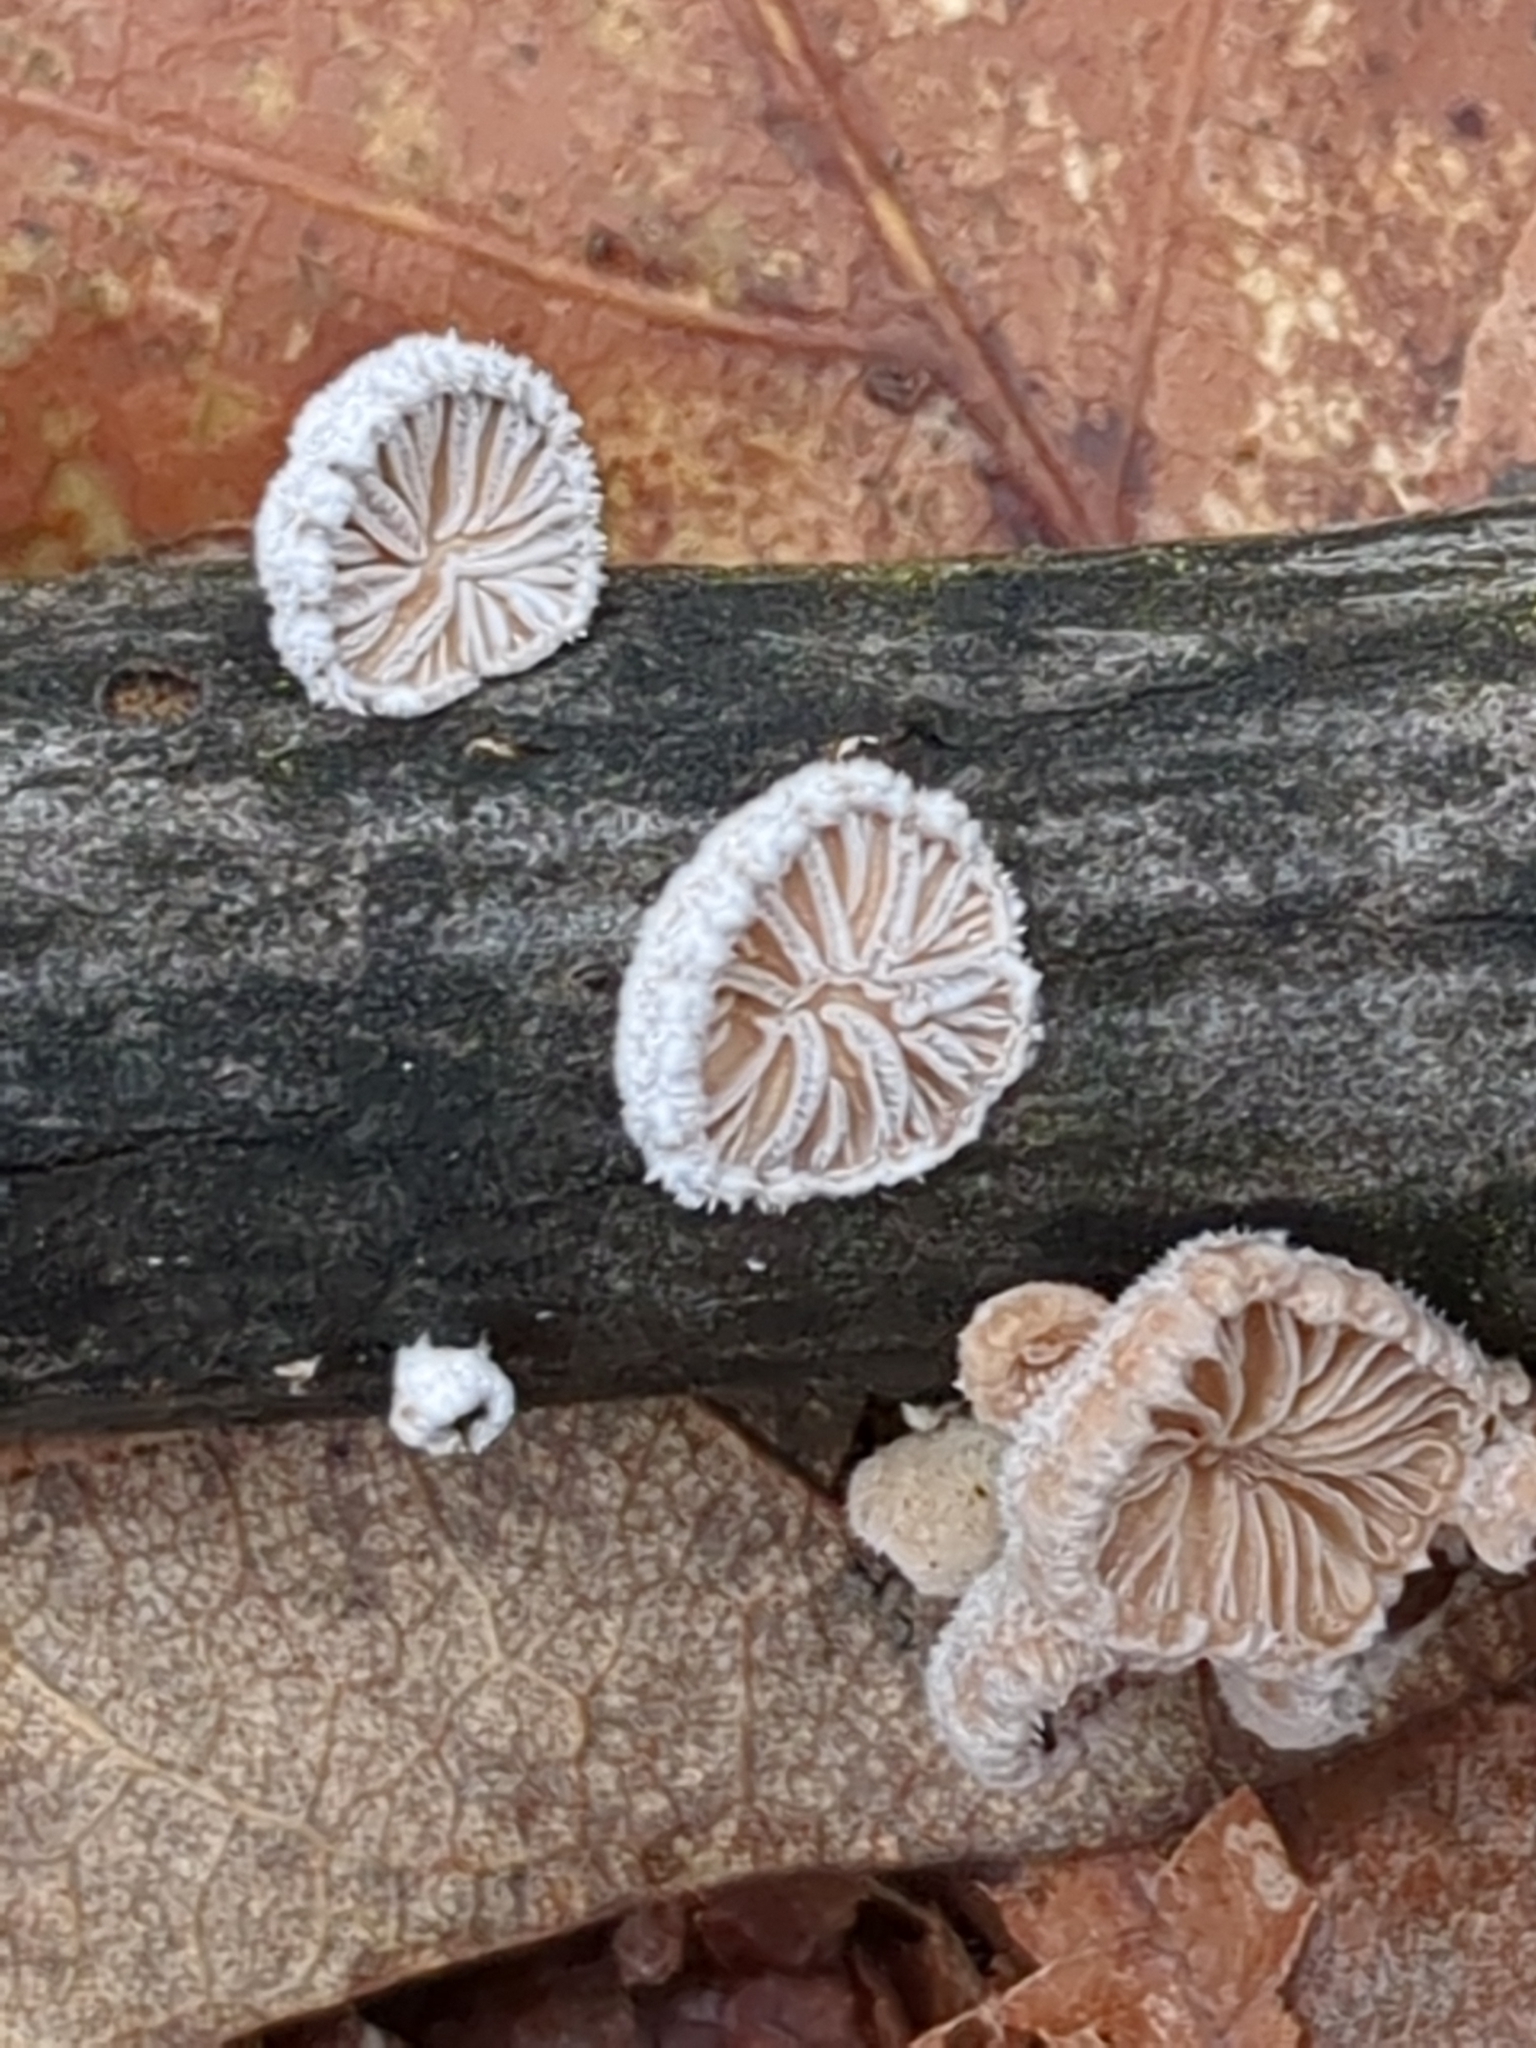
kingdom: Fungi
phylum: Basidiomycota
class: Agaricomycetes
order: Agaricales
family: Schizophyllaceae
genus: Schizophyllum
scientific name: Schizophyllum commune
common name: Common porecrust
